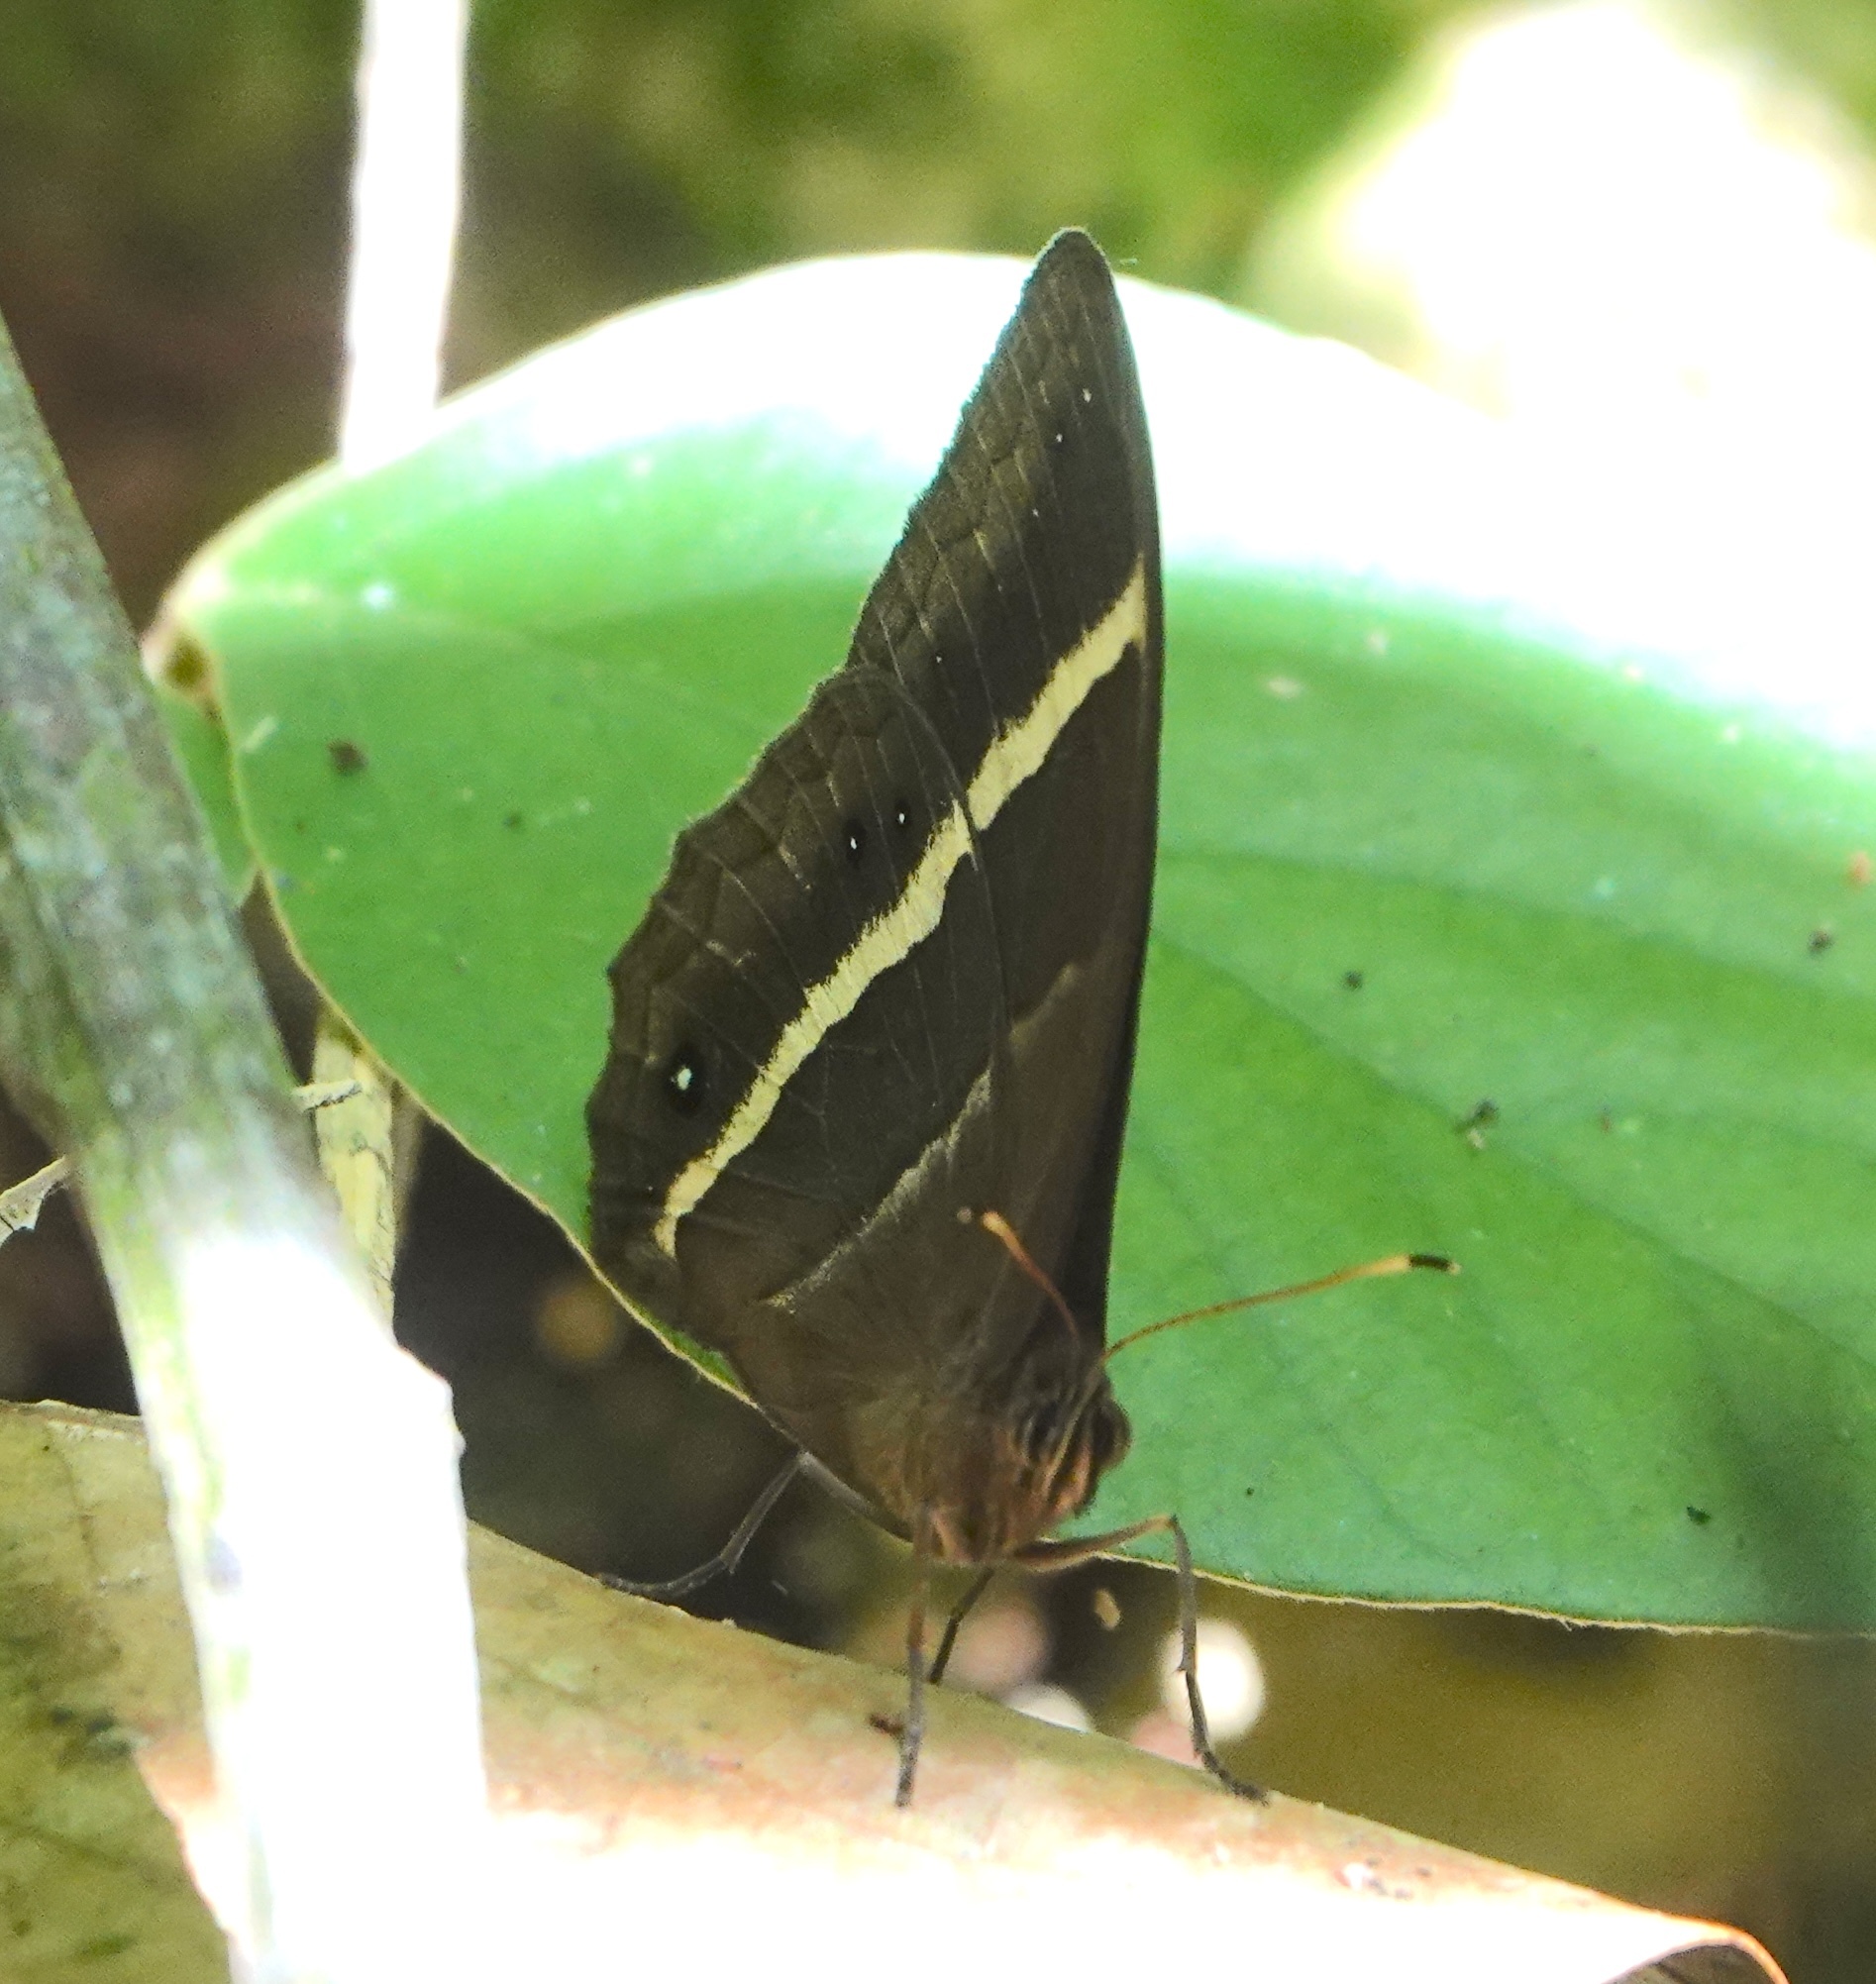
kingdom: Animalia
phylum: Arthropoda
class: Insecta
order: Lepidoptera
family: Nymphalidae
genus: Parataygetis
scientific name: Parataygetis lineata
